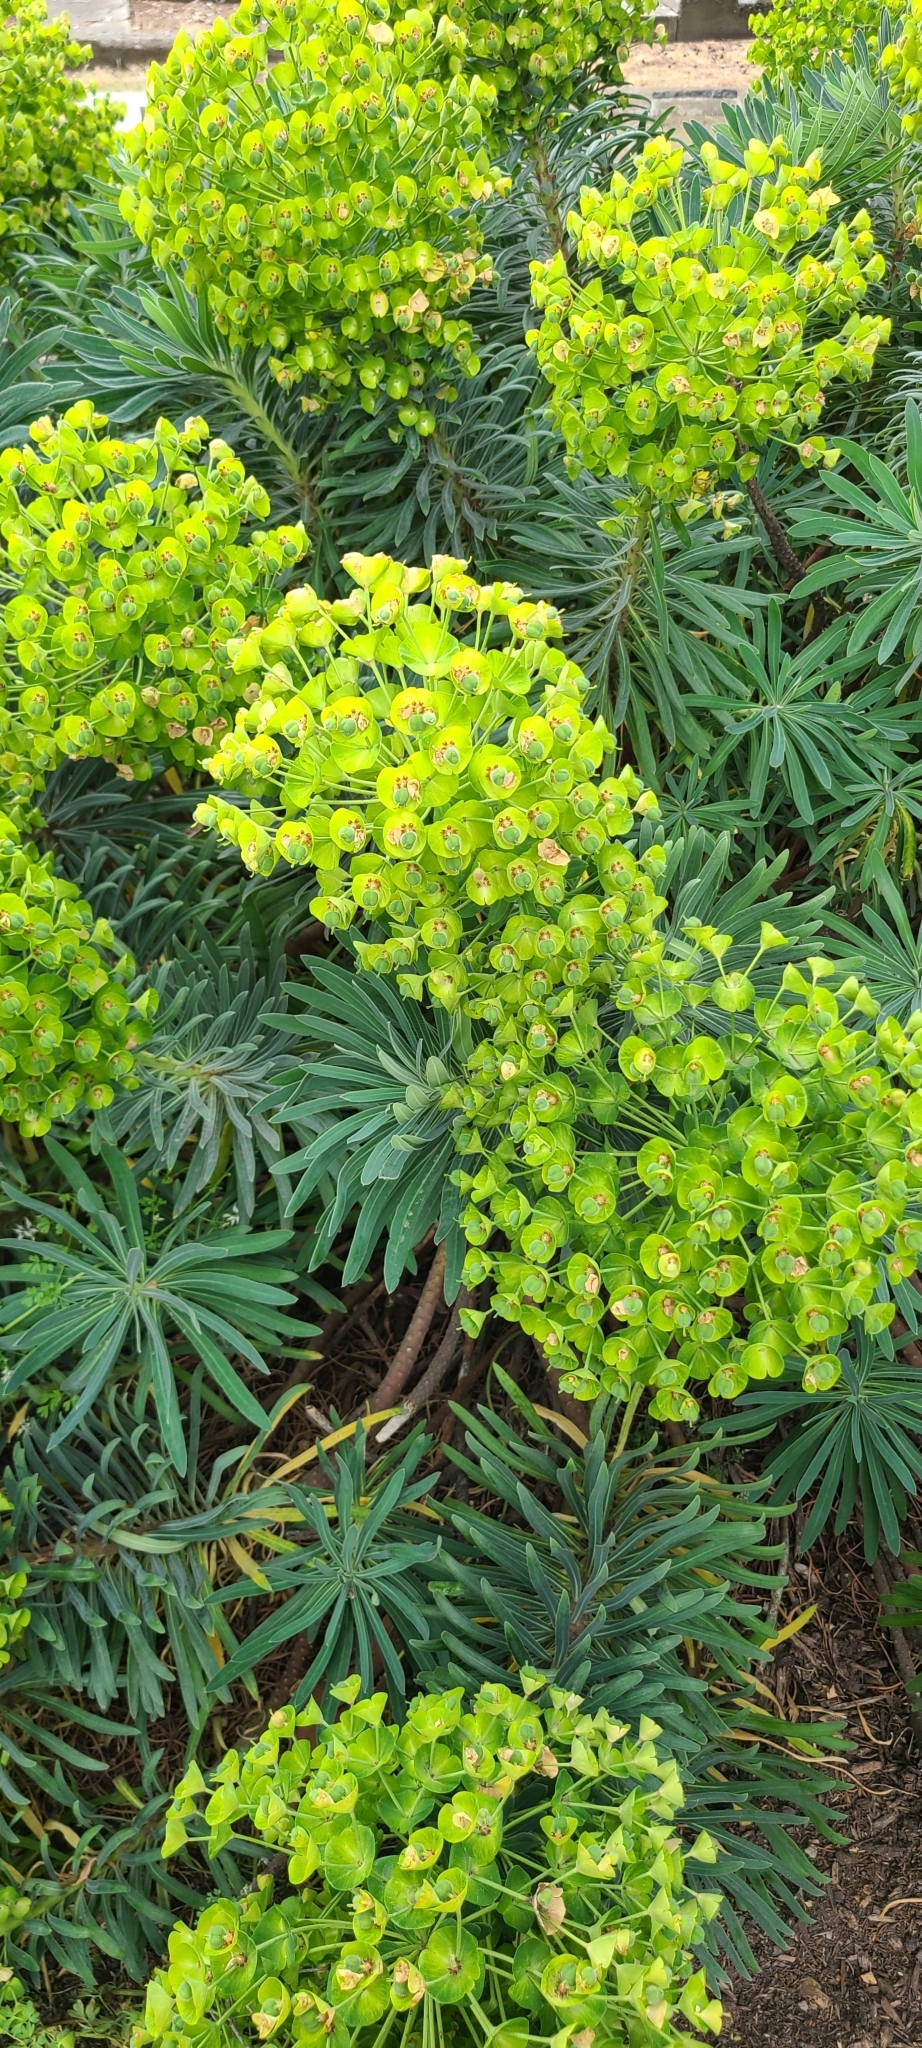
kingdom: Plantae
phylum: Tracheophyta
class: Magnoliopsida
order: Malpighiales
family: Euphorbiaceae
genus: Euphorbia
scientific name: Euphorbia characias
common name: Mediterranean spurge
